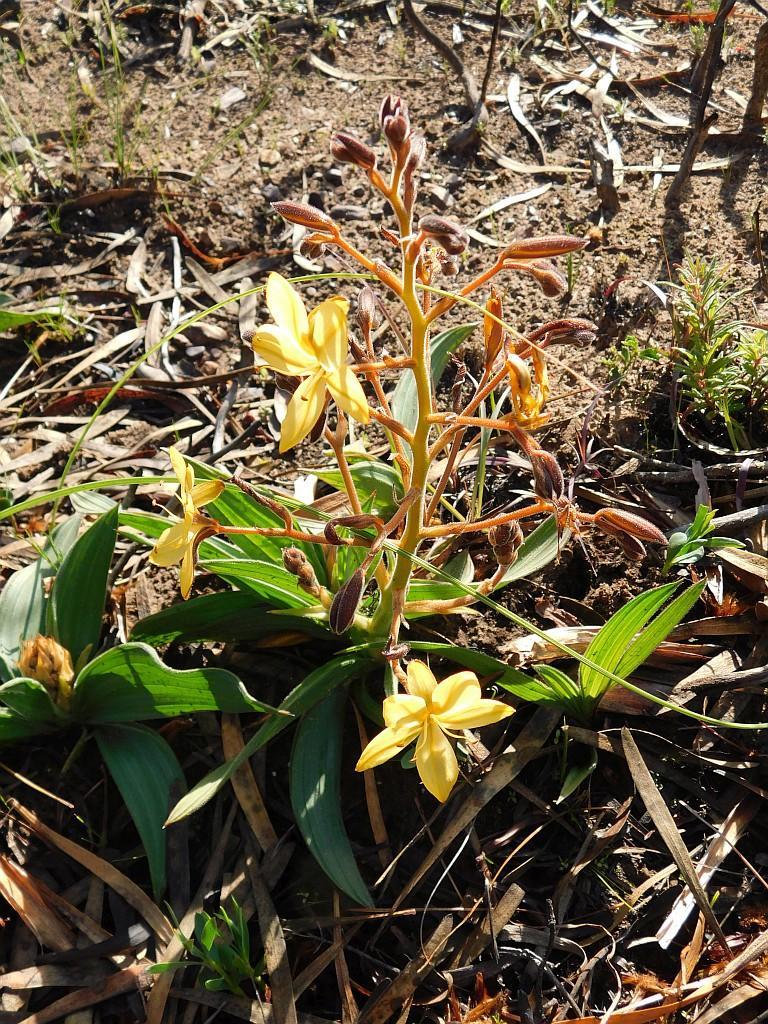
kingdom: Plantae
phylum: Tracheophyta
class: Liliopsida
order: Commelinales
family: Haemodoraceae
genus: Wachendorfia
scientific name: Wachendorfia paniculata
